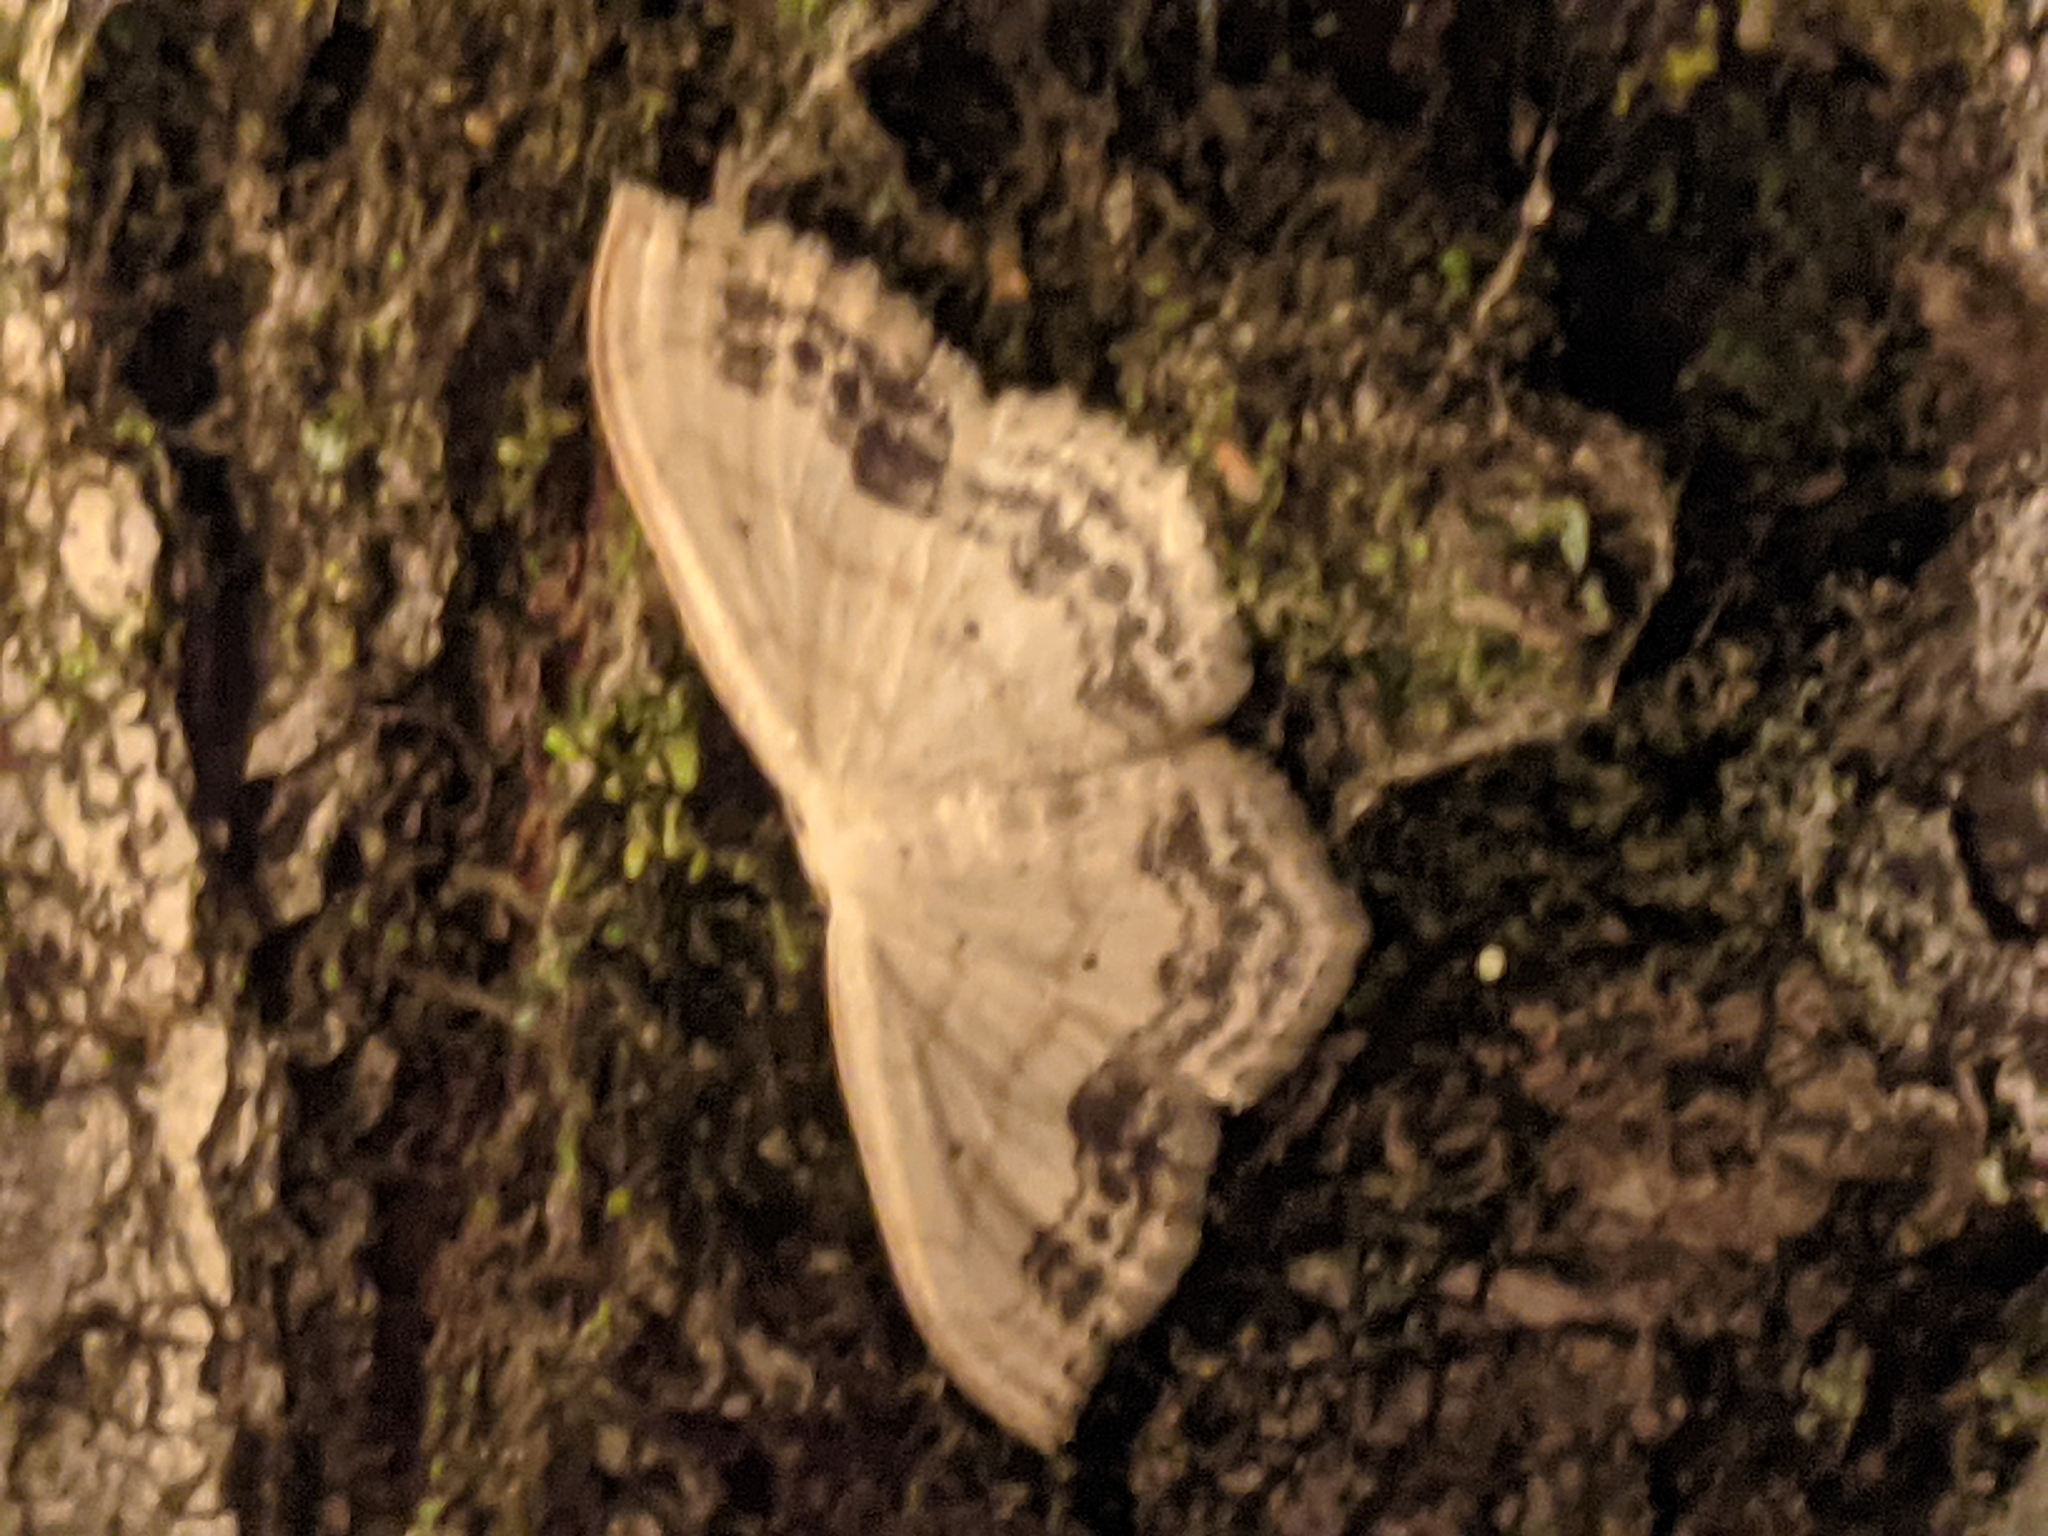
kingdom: Animalia
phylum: Arthropoda
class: Insecta
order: Lepidoptera
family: Geometridae
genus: Scopula
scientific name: Scopula limboundata
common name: Large lace border
